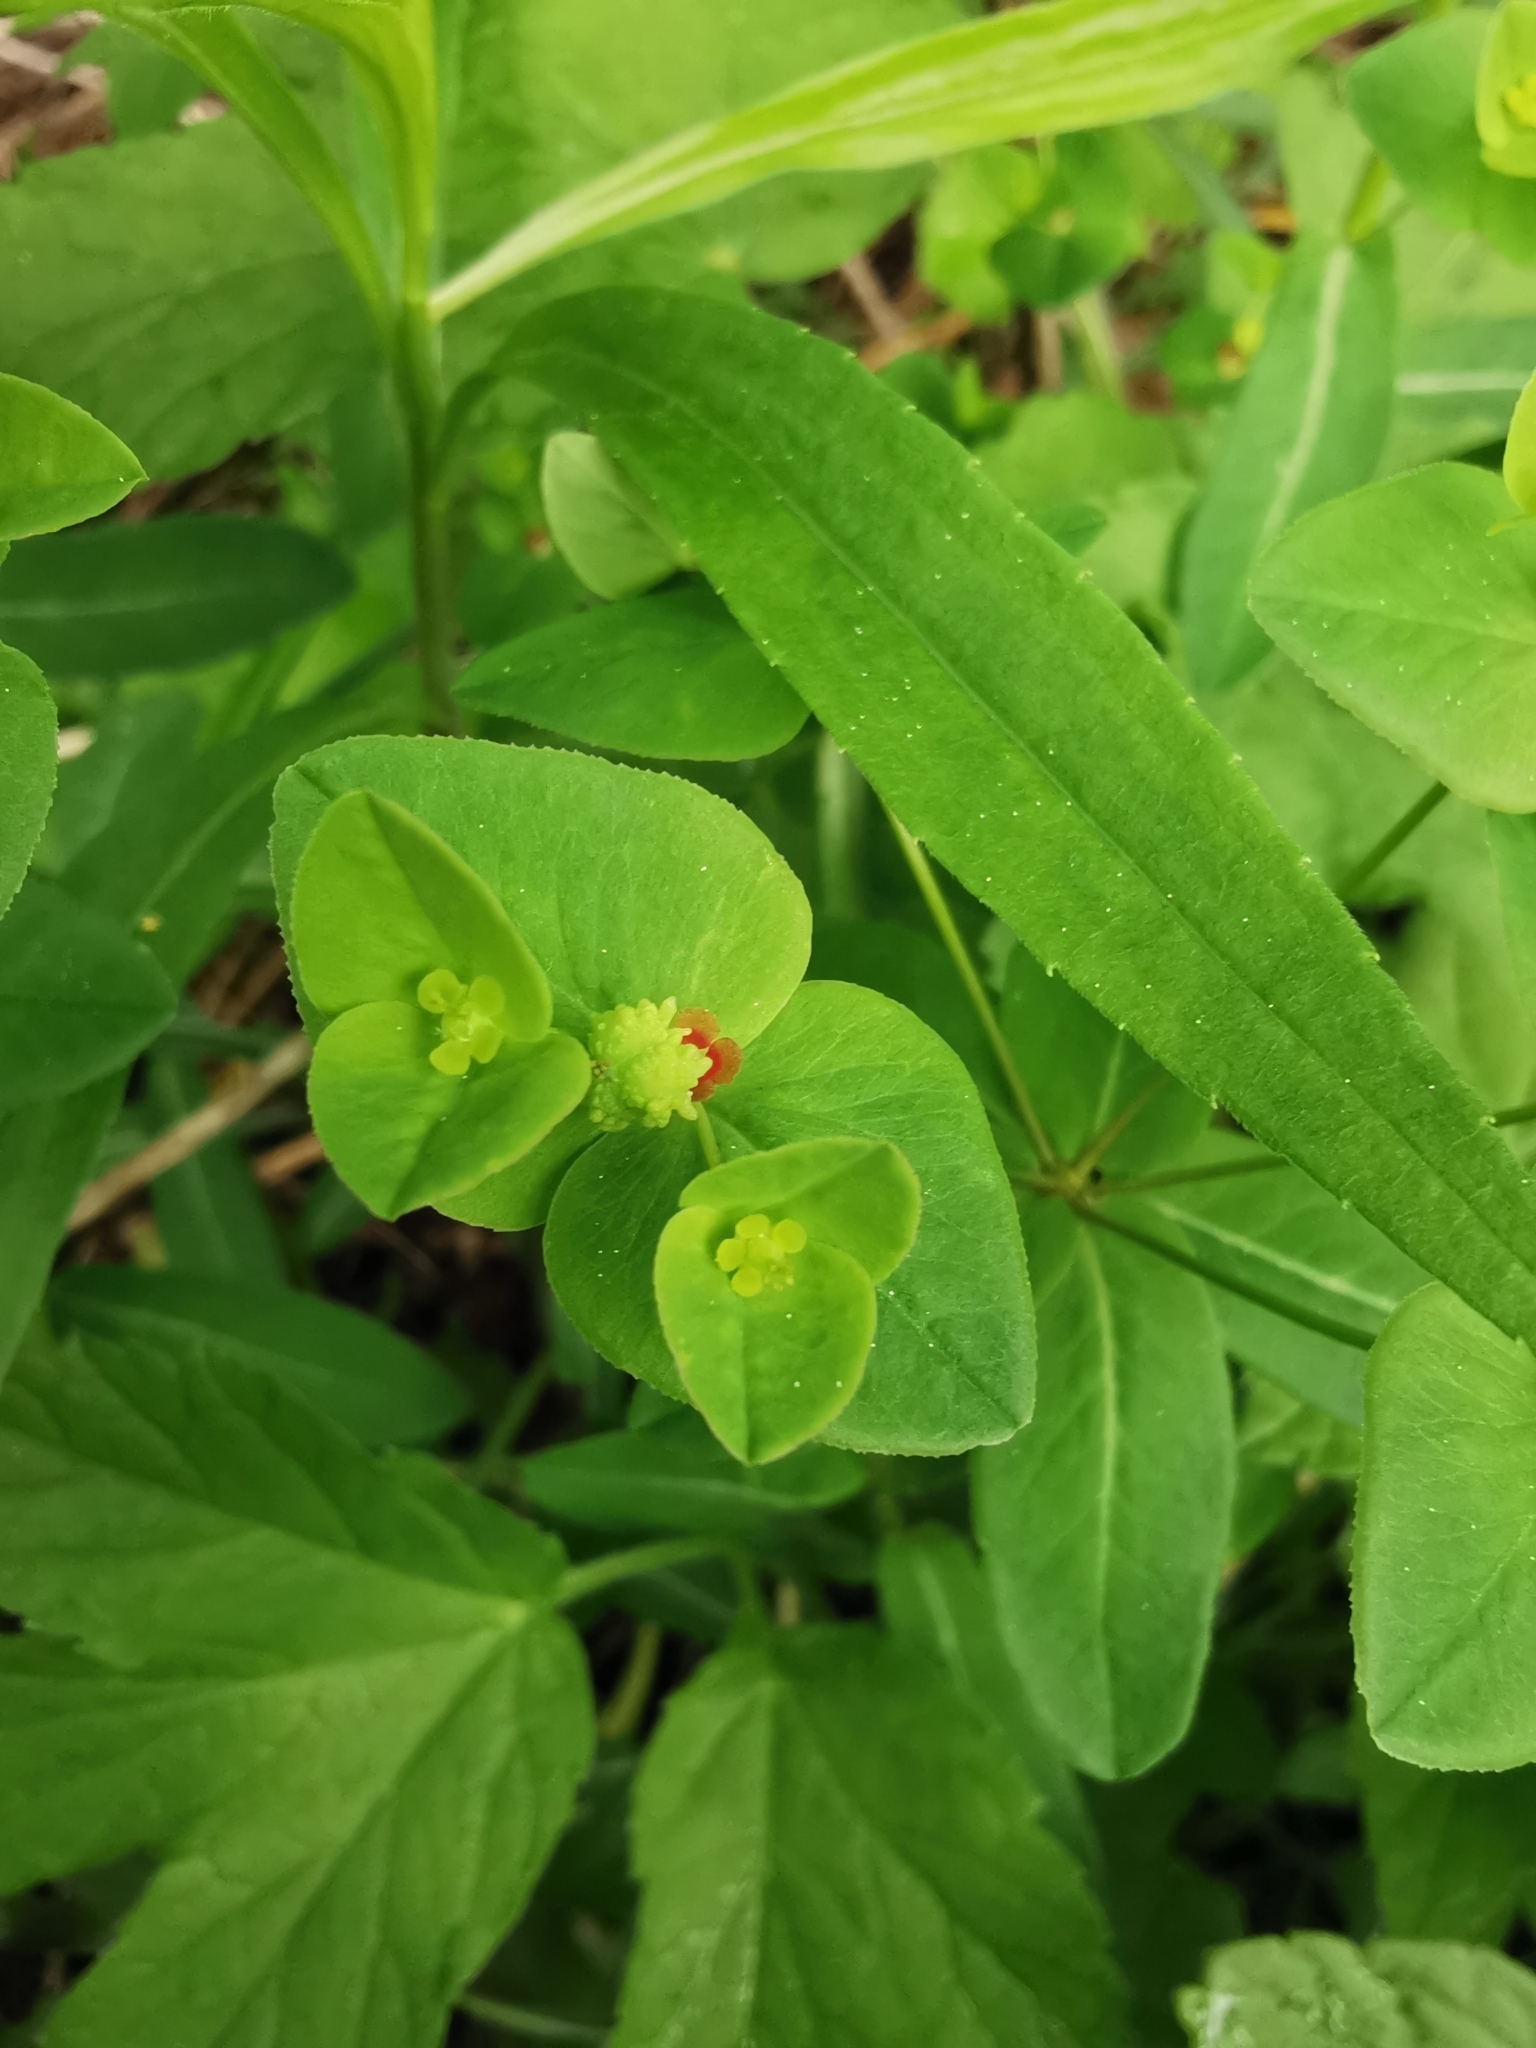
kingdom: Plantae
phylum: Tracheophyta
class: Magnoliopsida
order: Malpighiales
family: Euphorbiaceae
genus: Euphorbia
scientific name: Euphorbia dulcis
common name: Sweet spurge
